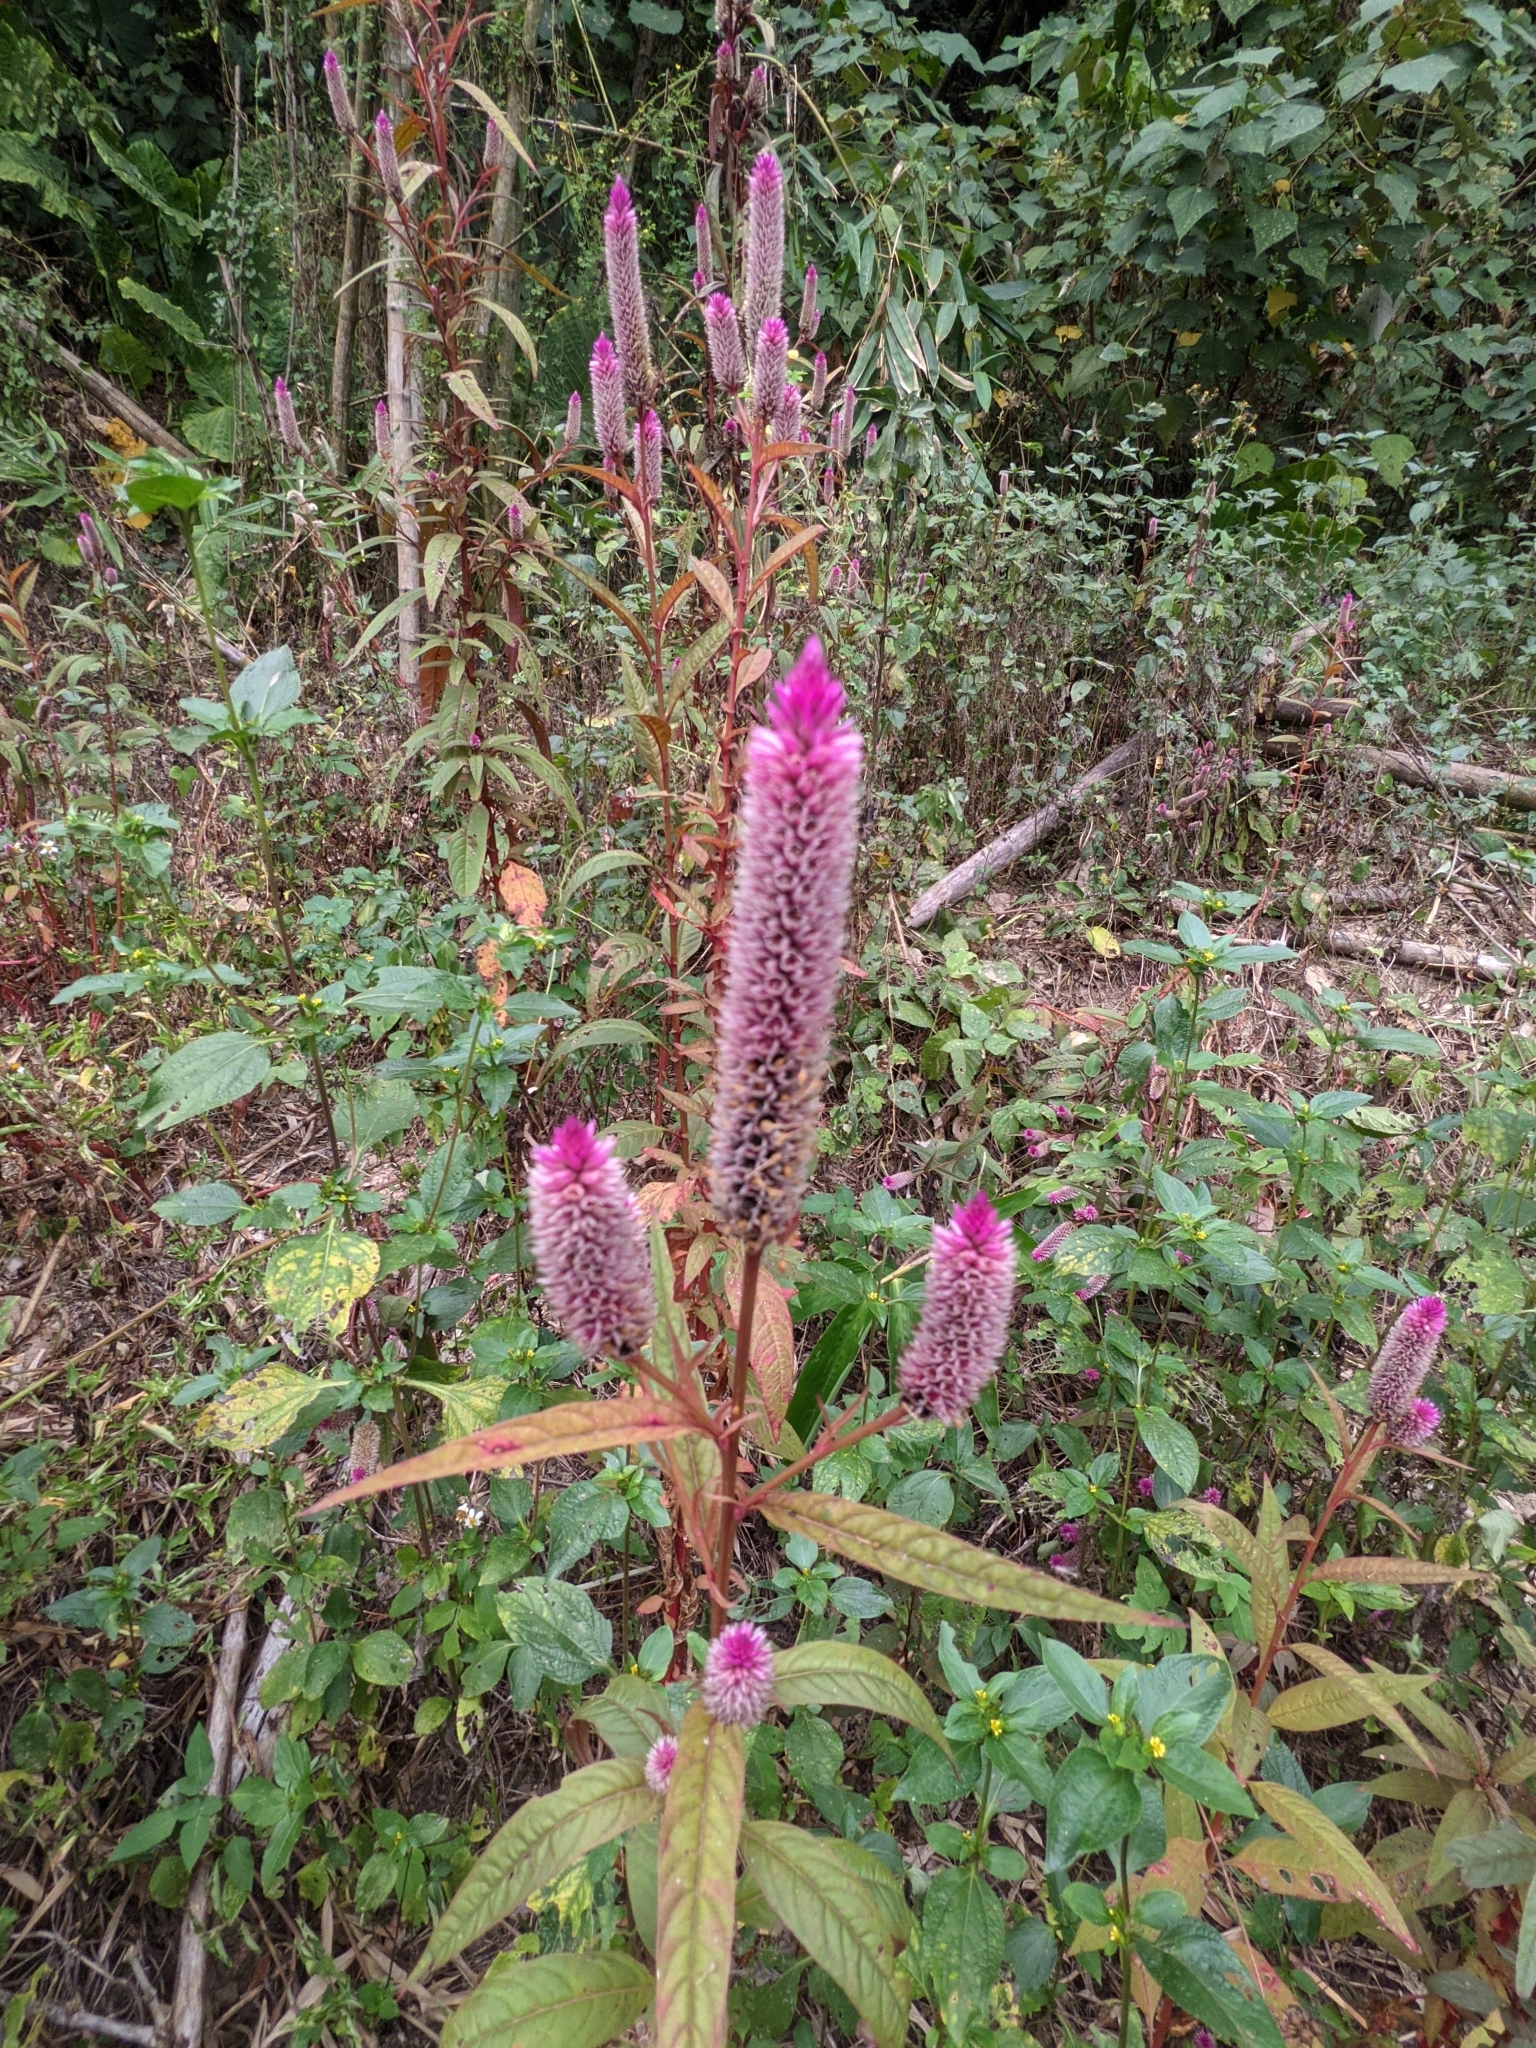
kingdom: Plantae
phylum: Tracheophyta
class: Magnoliopsida
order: Caryophyllales
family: Amaranthaceae
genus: Celosia
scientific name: Celosia argentea
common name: Feather cockscomb
